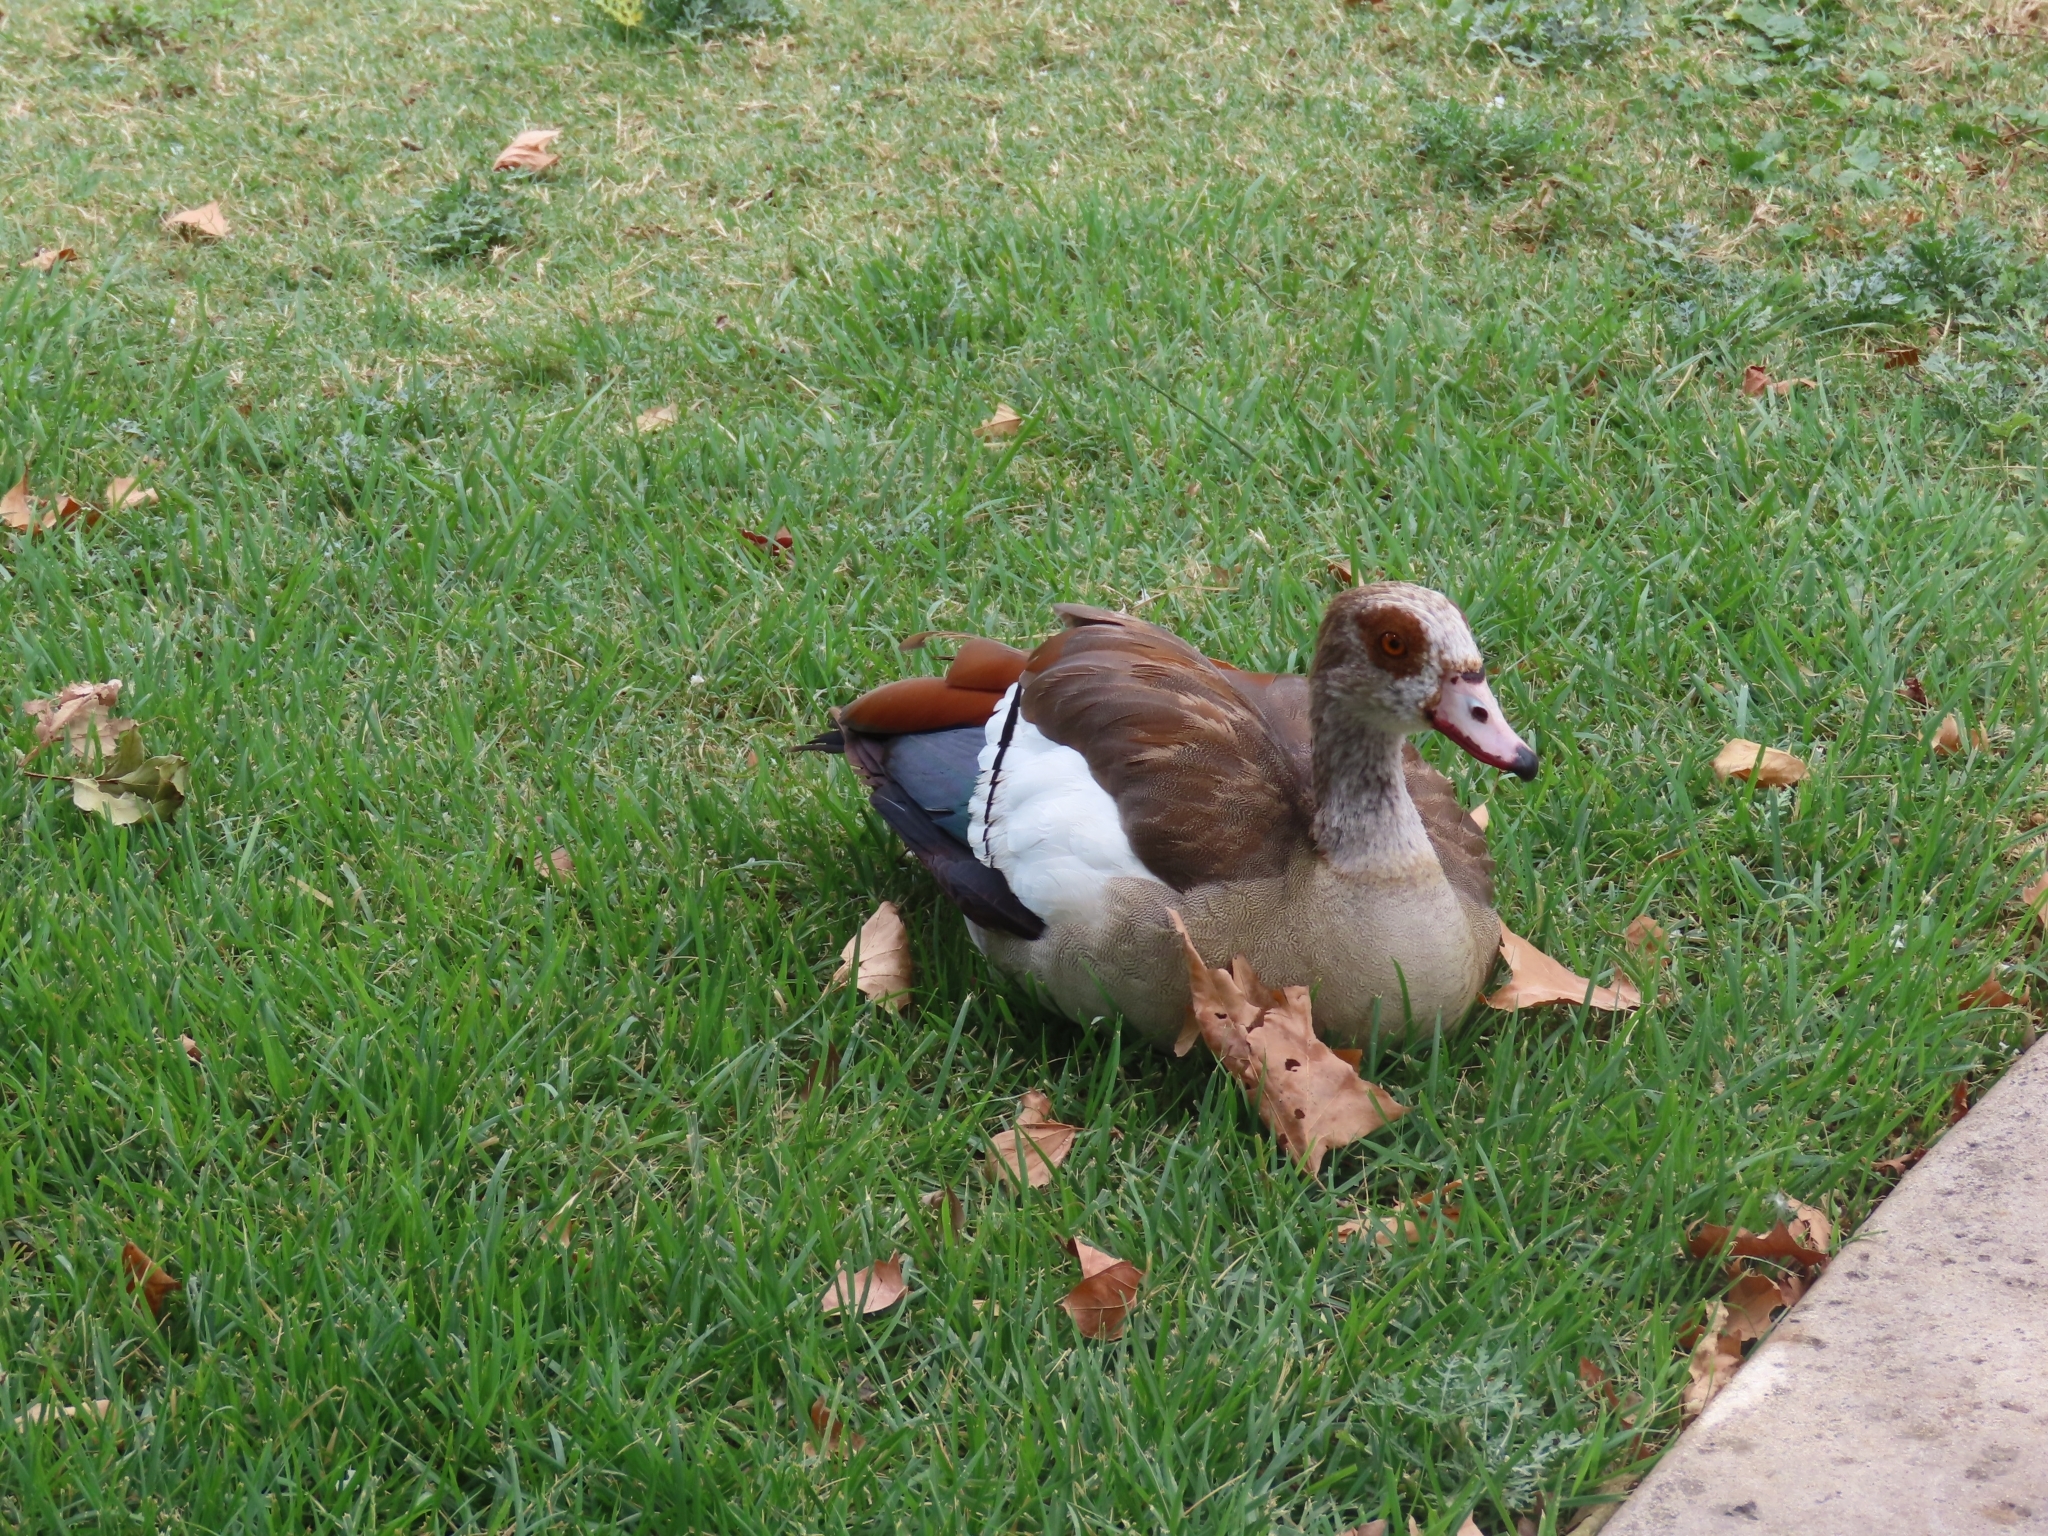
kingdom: Animalia
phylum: Chordata
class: Aves
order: Anseriformes
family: Anatidae
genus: Alopochen
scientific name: Alopochen aegyptiaca
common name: Egyptian goose
